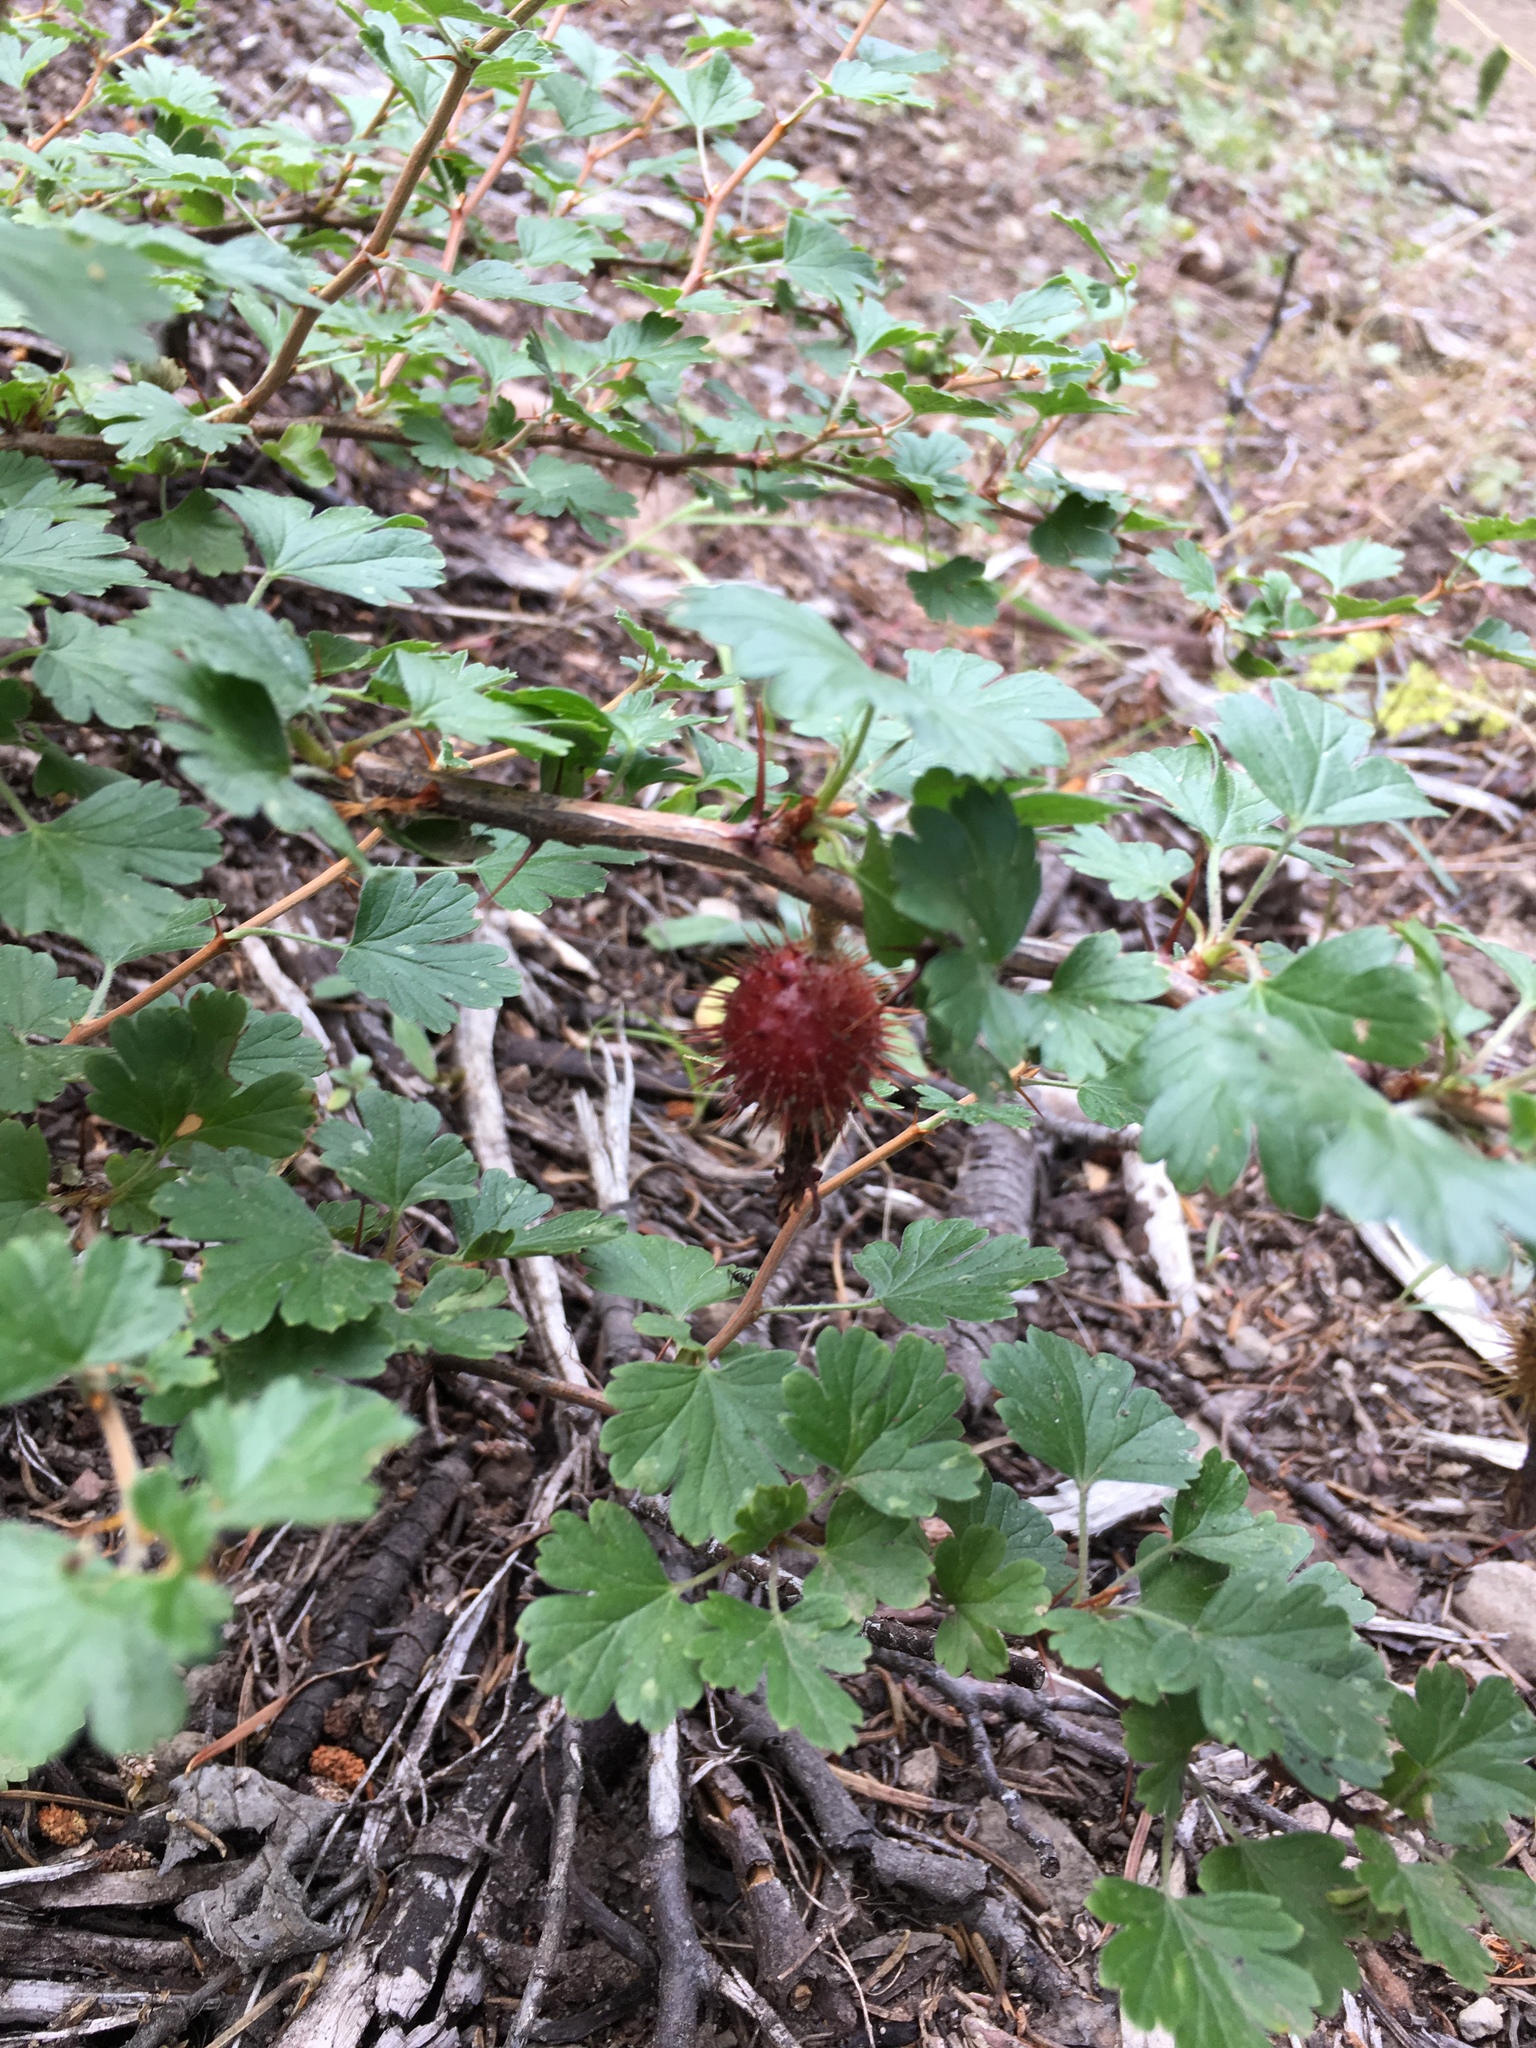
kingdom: Plantae
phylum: Tracheophyta
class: Magnoliopsida
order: Saxifragales
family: Grossulariaceae
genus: Ribes
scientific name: Ribes roezlii
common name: Sierra gooseberry
